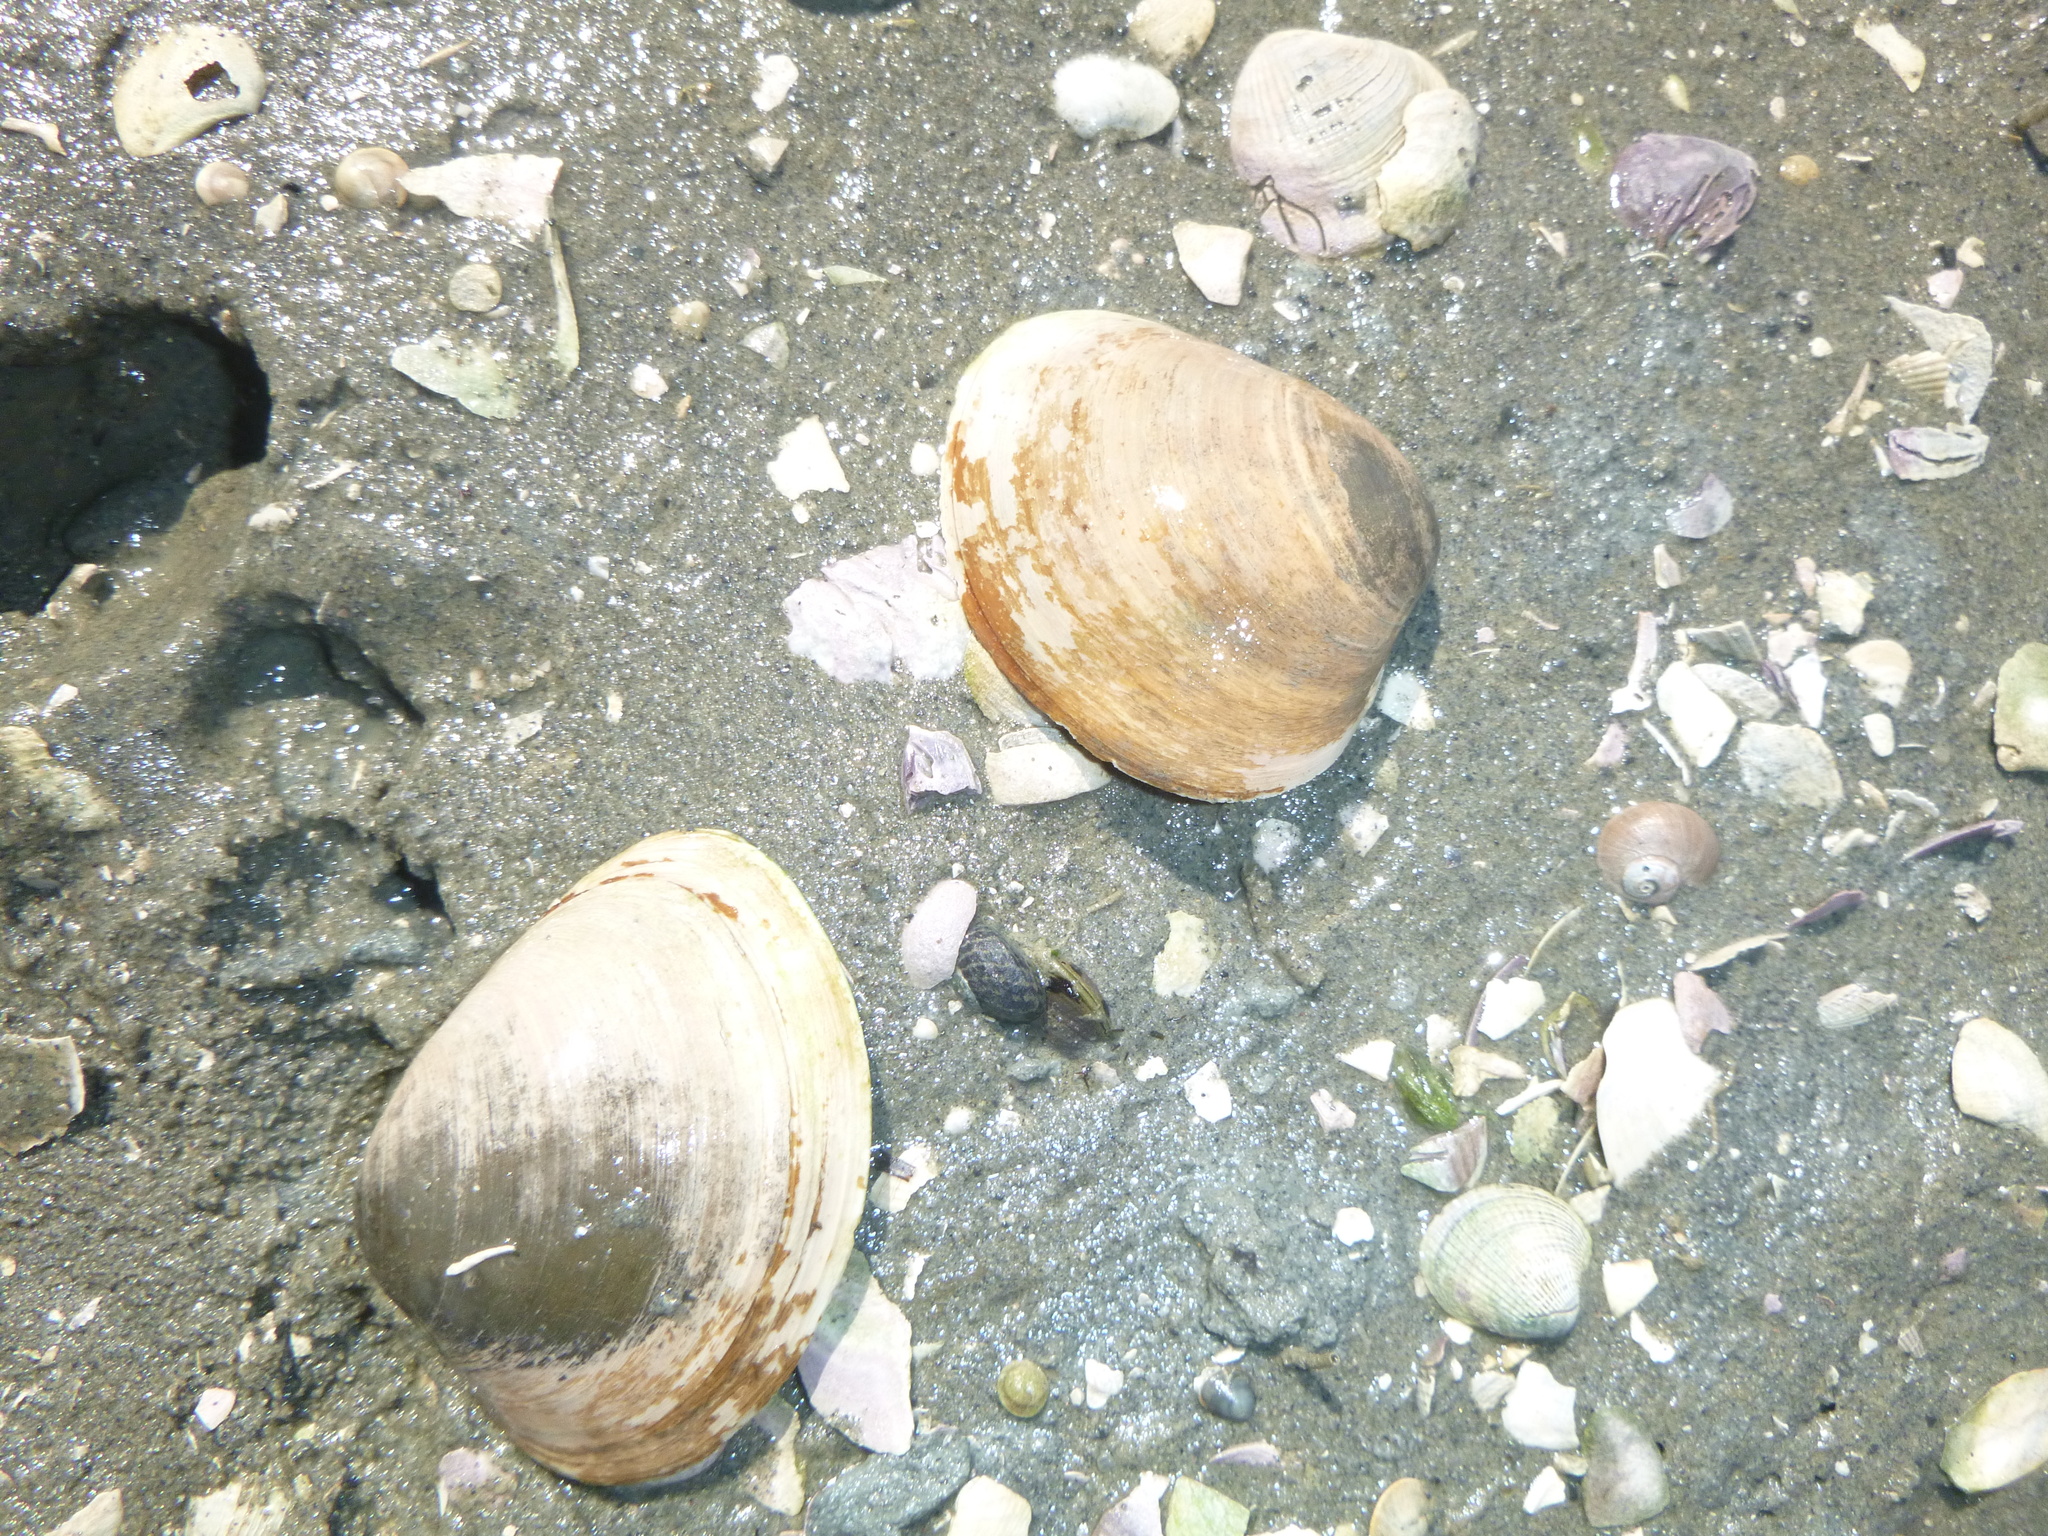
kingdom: Animalia
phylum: Mollusca
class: Bivalvia
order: Venerida
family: Mactridae
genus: Cyclomactra
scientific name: Cyclomactra ovata
